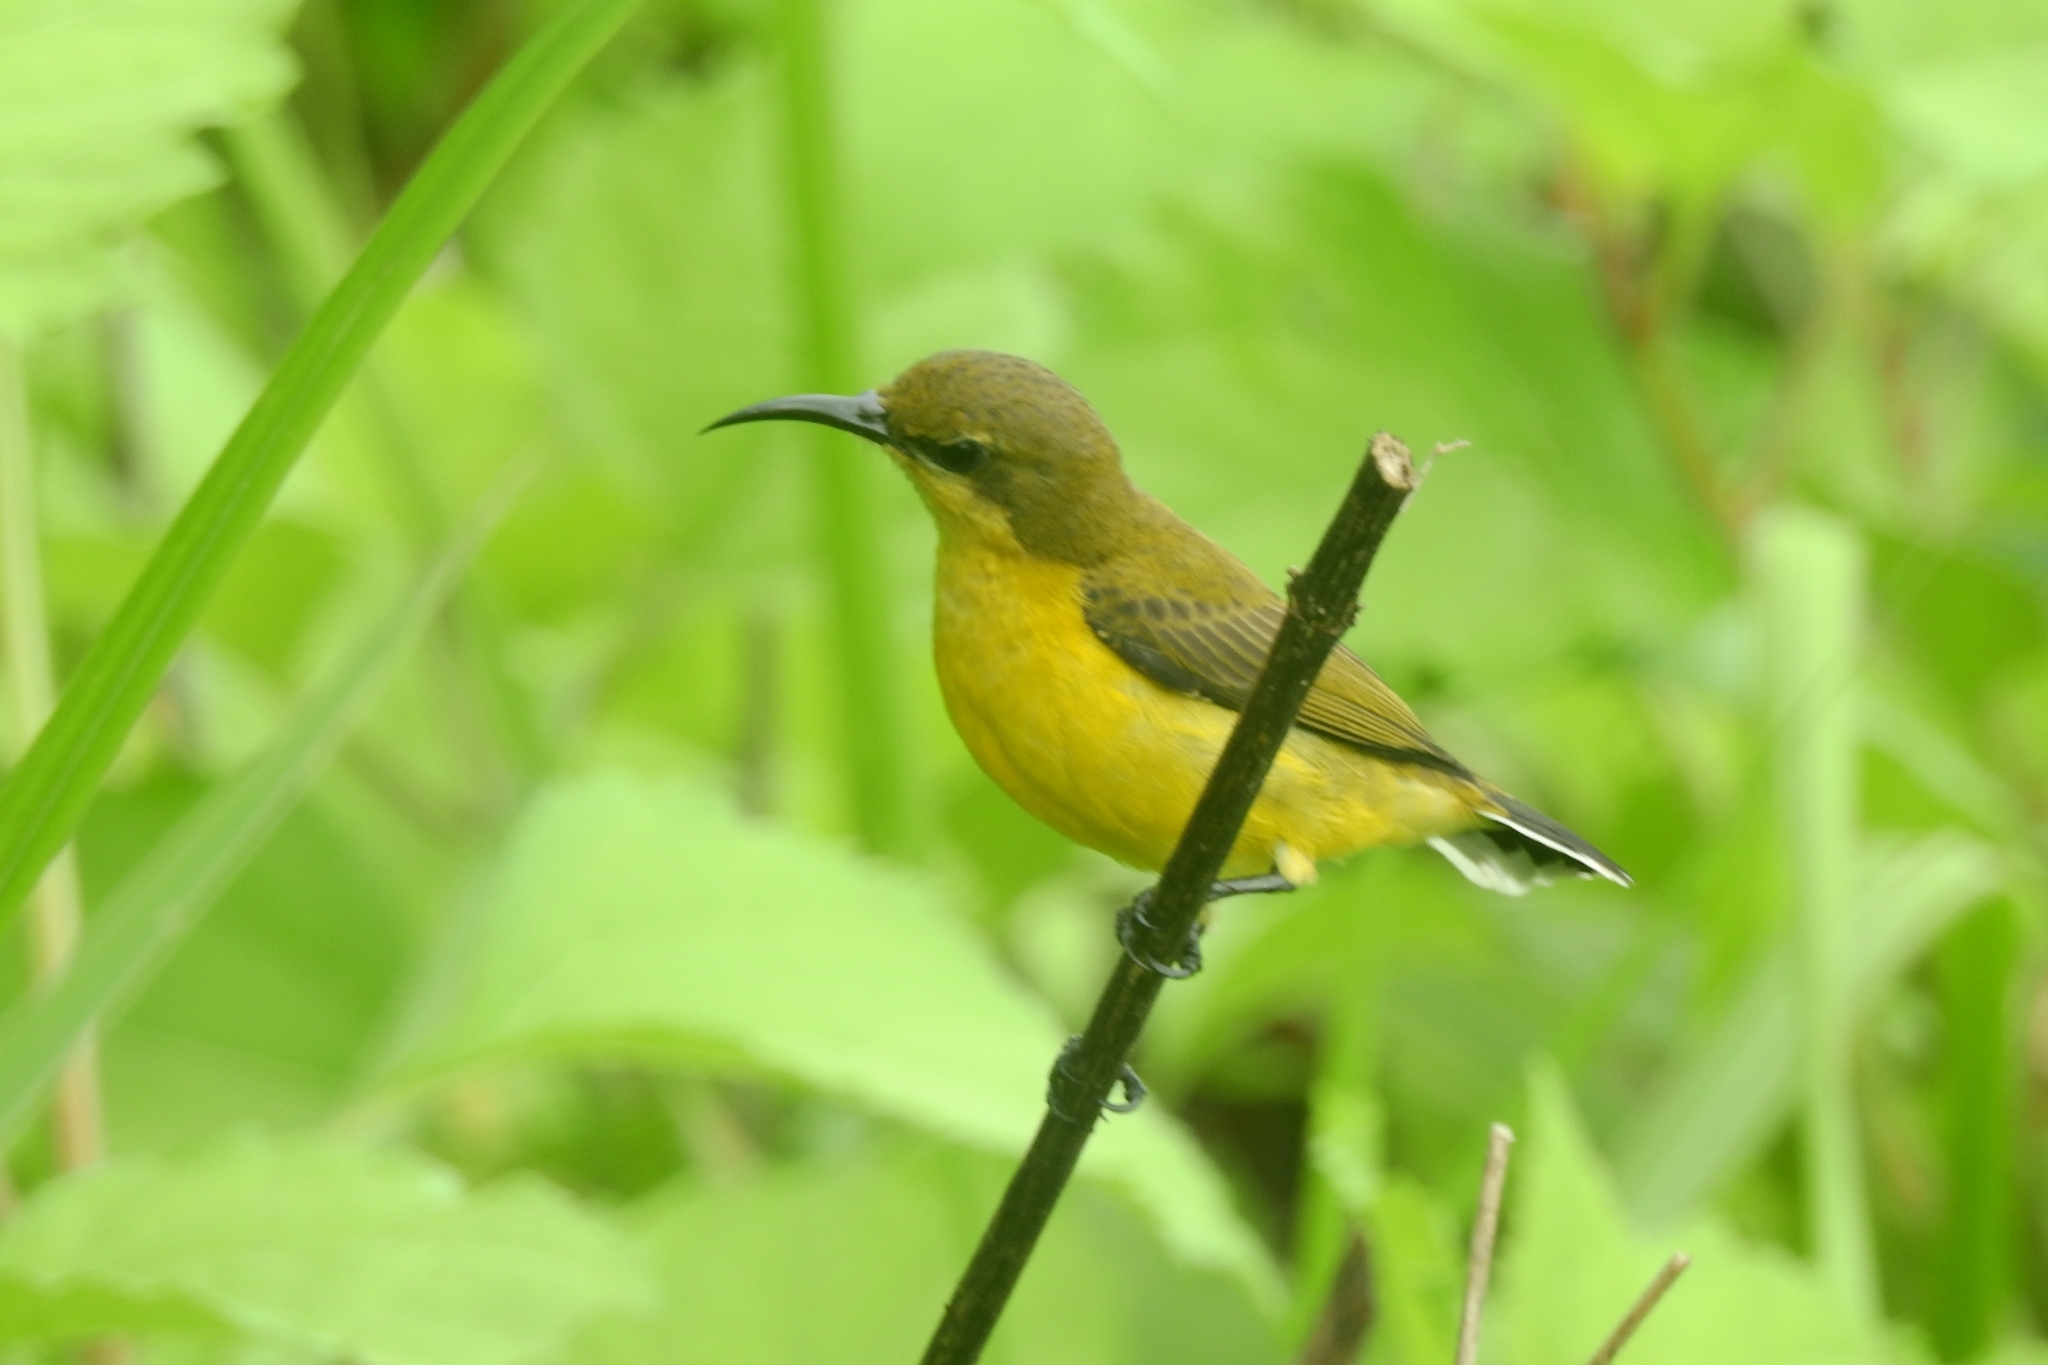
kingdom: Animalia
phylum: Chordata
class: Aves
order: Passeriformes
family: Nectariniidae
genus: Cinnyris
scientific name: Cinnyris
